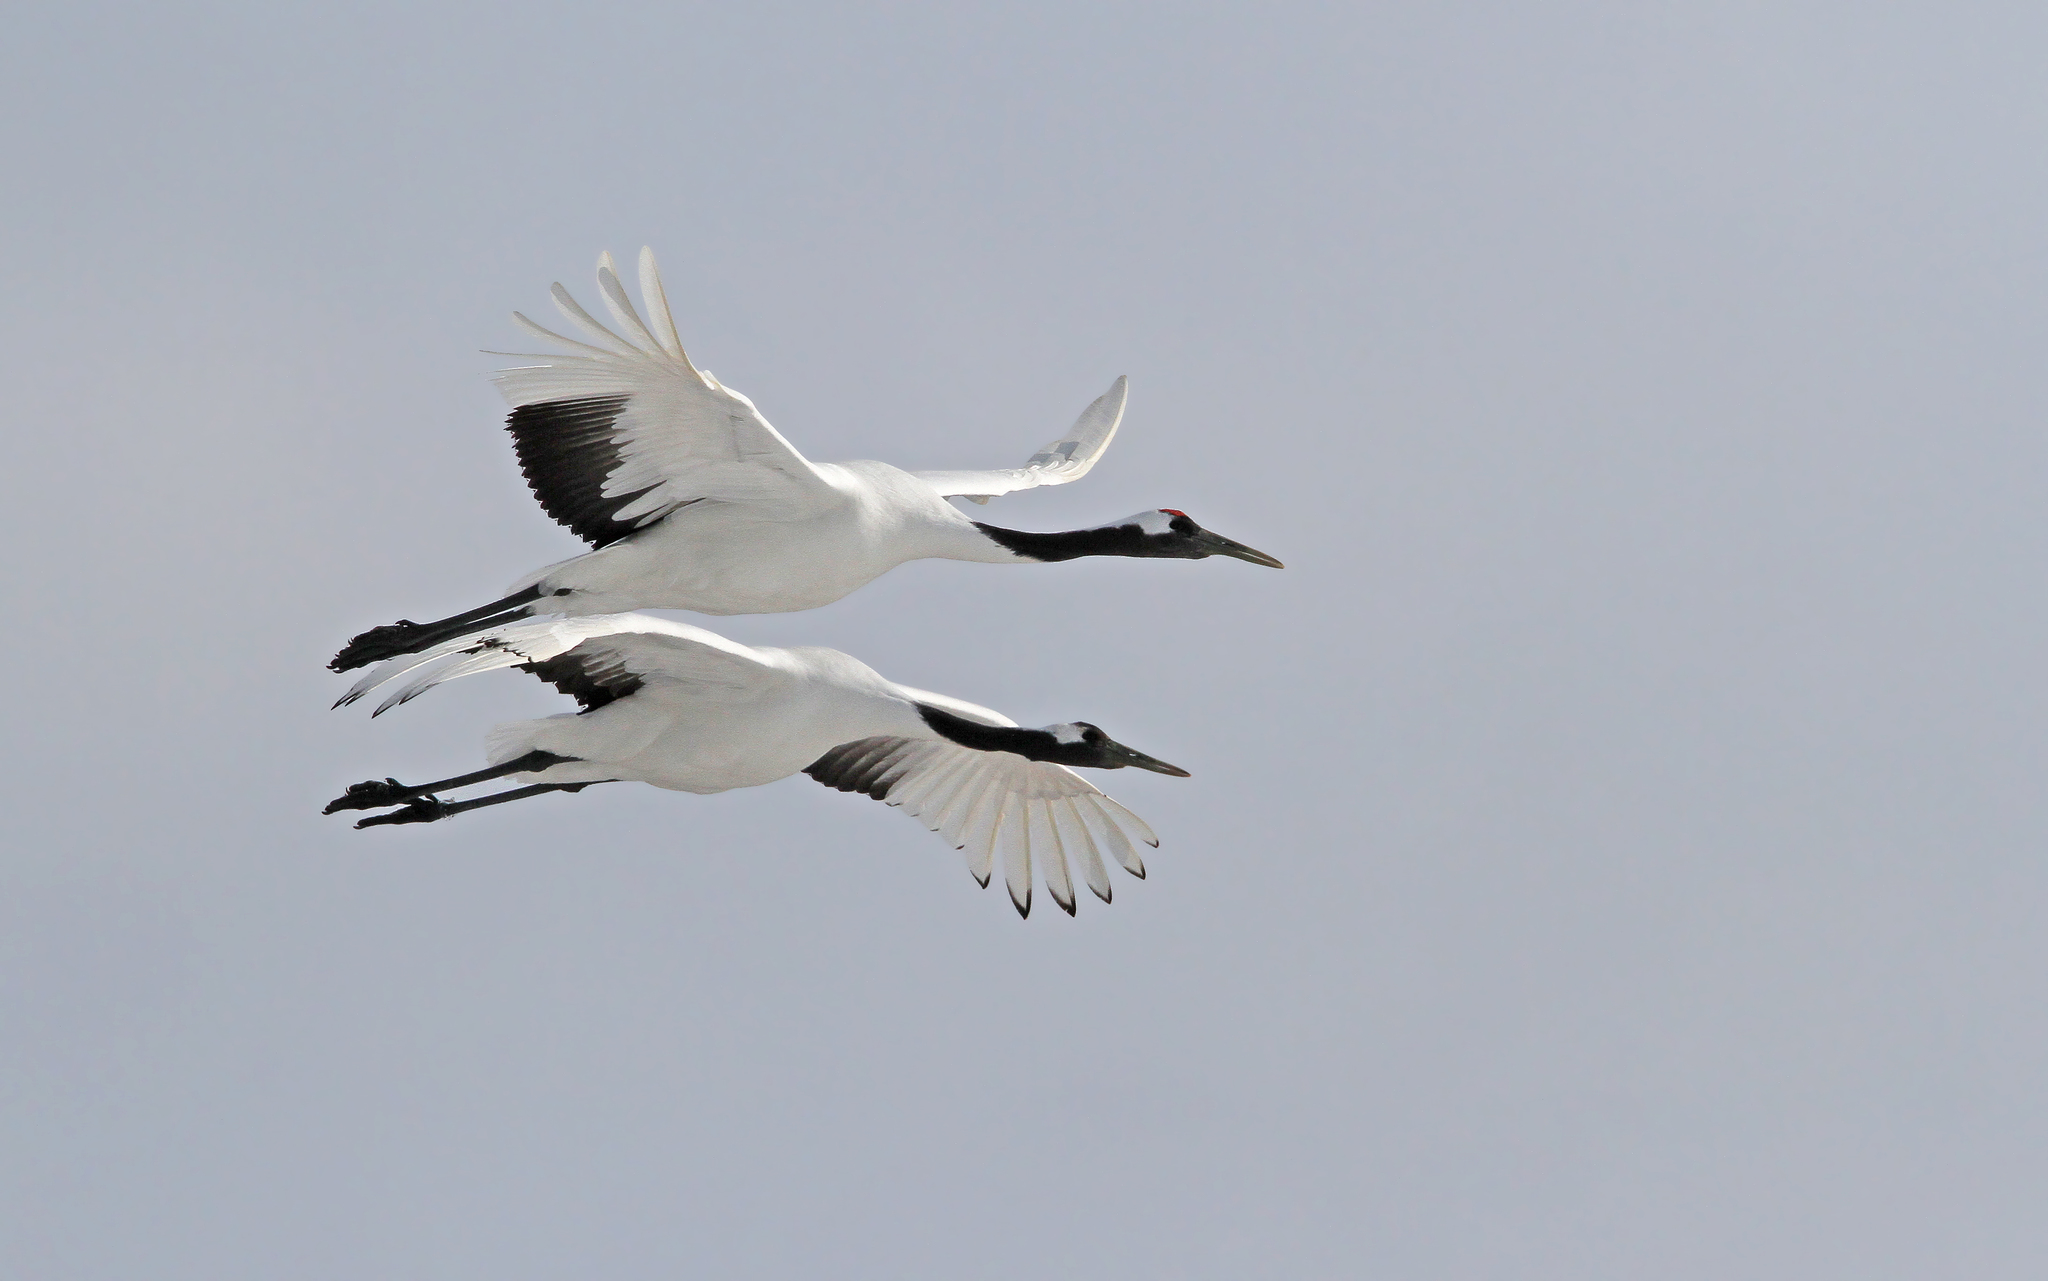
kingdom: Animalia
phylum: Chordata
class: Aves
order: Gruiformes
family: Gruidae
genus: Grus
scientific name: Grus japonensis
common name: Red-crowned crane
